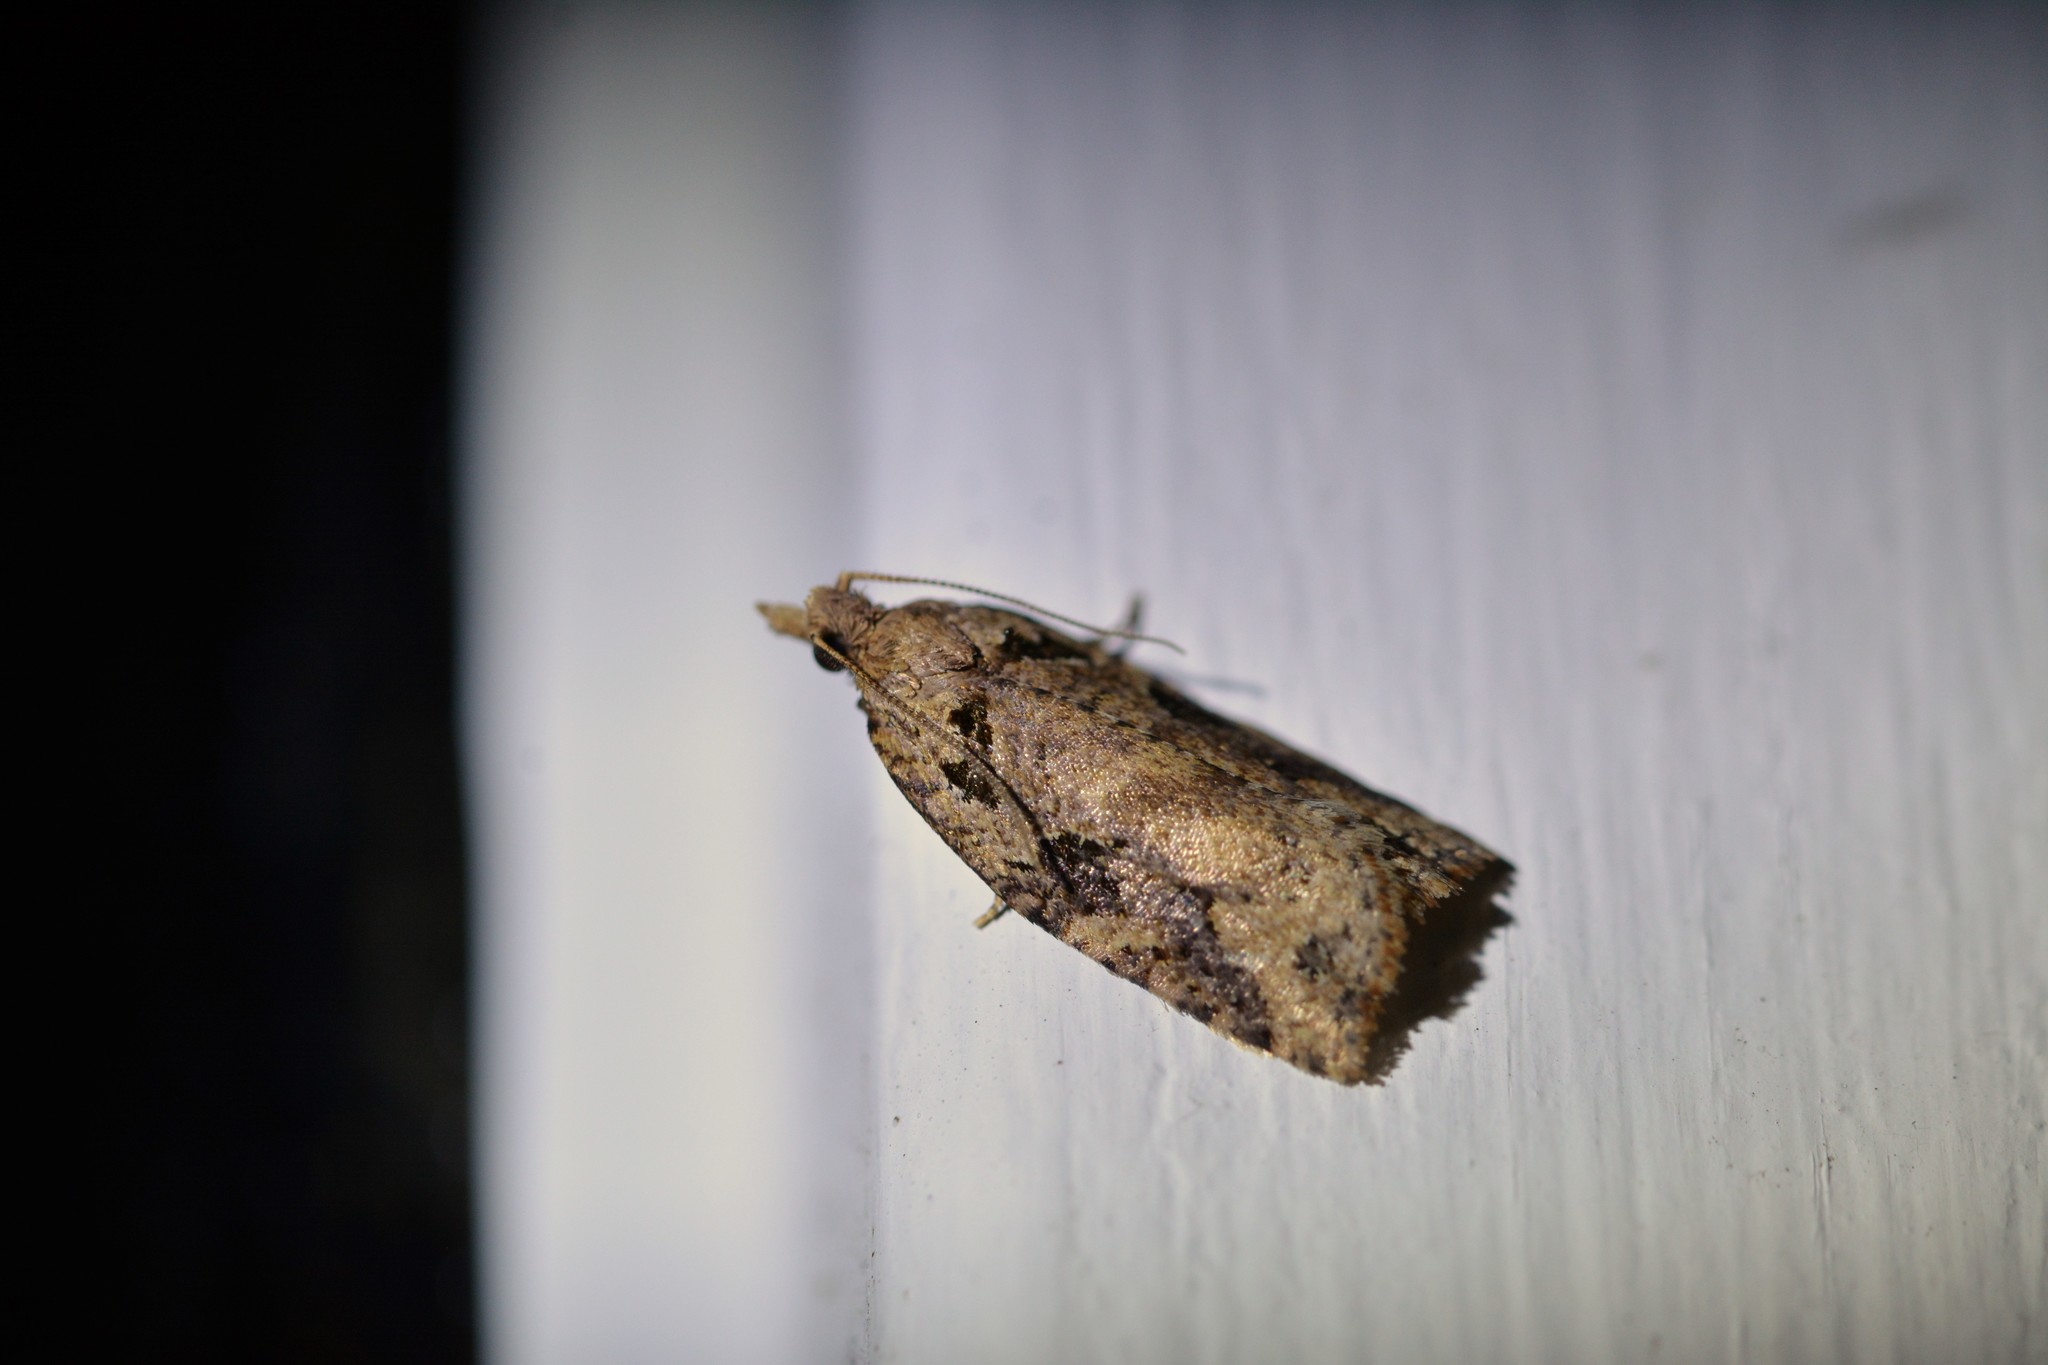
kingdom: Animalia
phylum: Arthropoda
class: Insecta
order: Lepidoptera
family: Tortricidae
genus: Ctenopseustis
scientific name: Ctenopseustis obliquana
